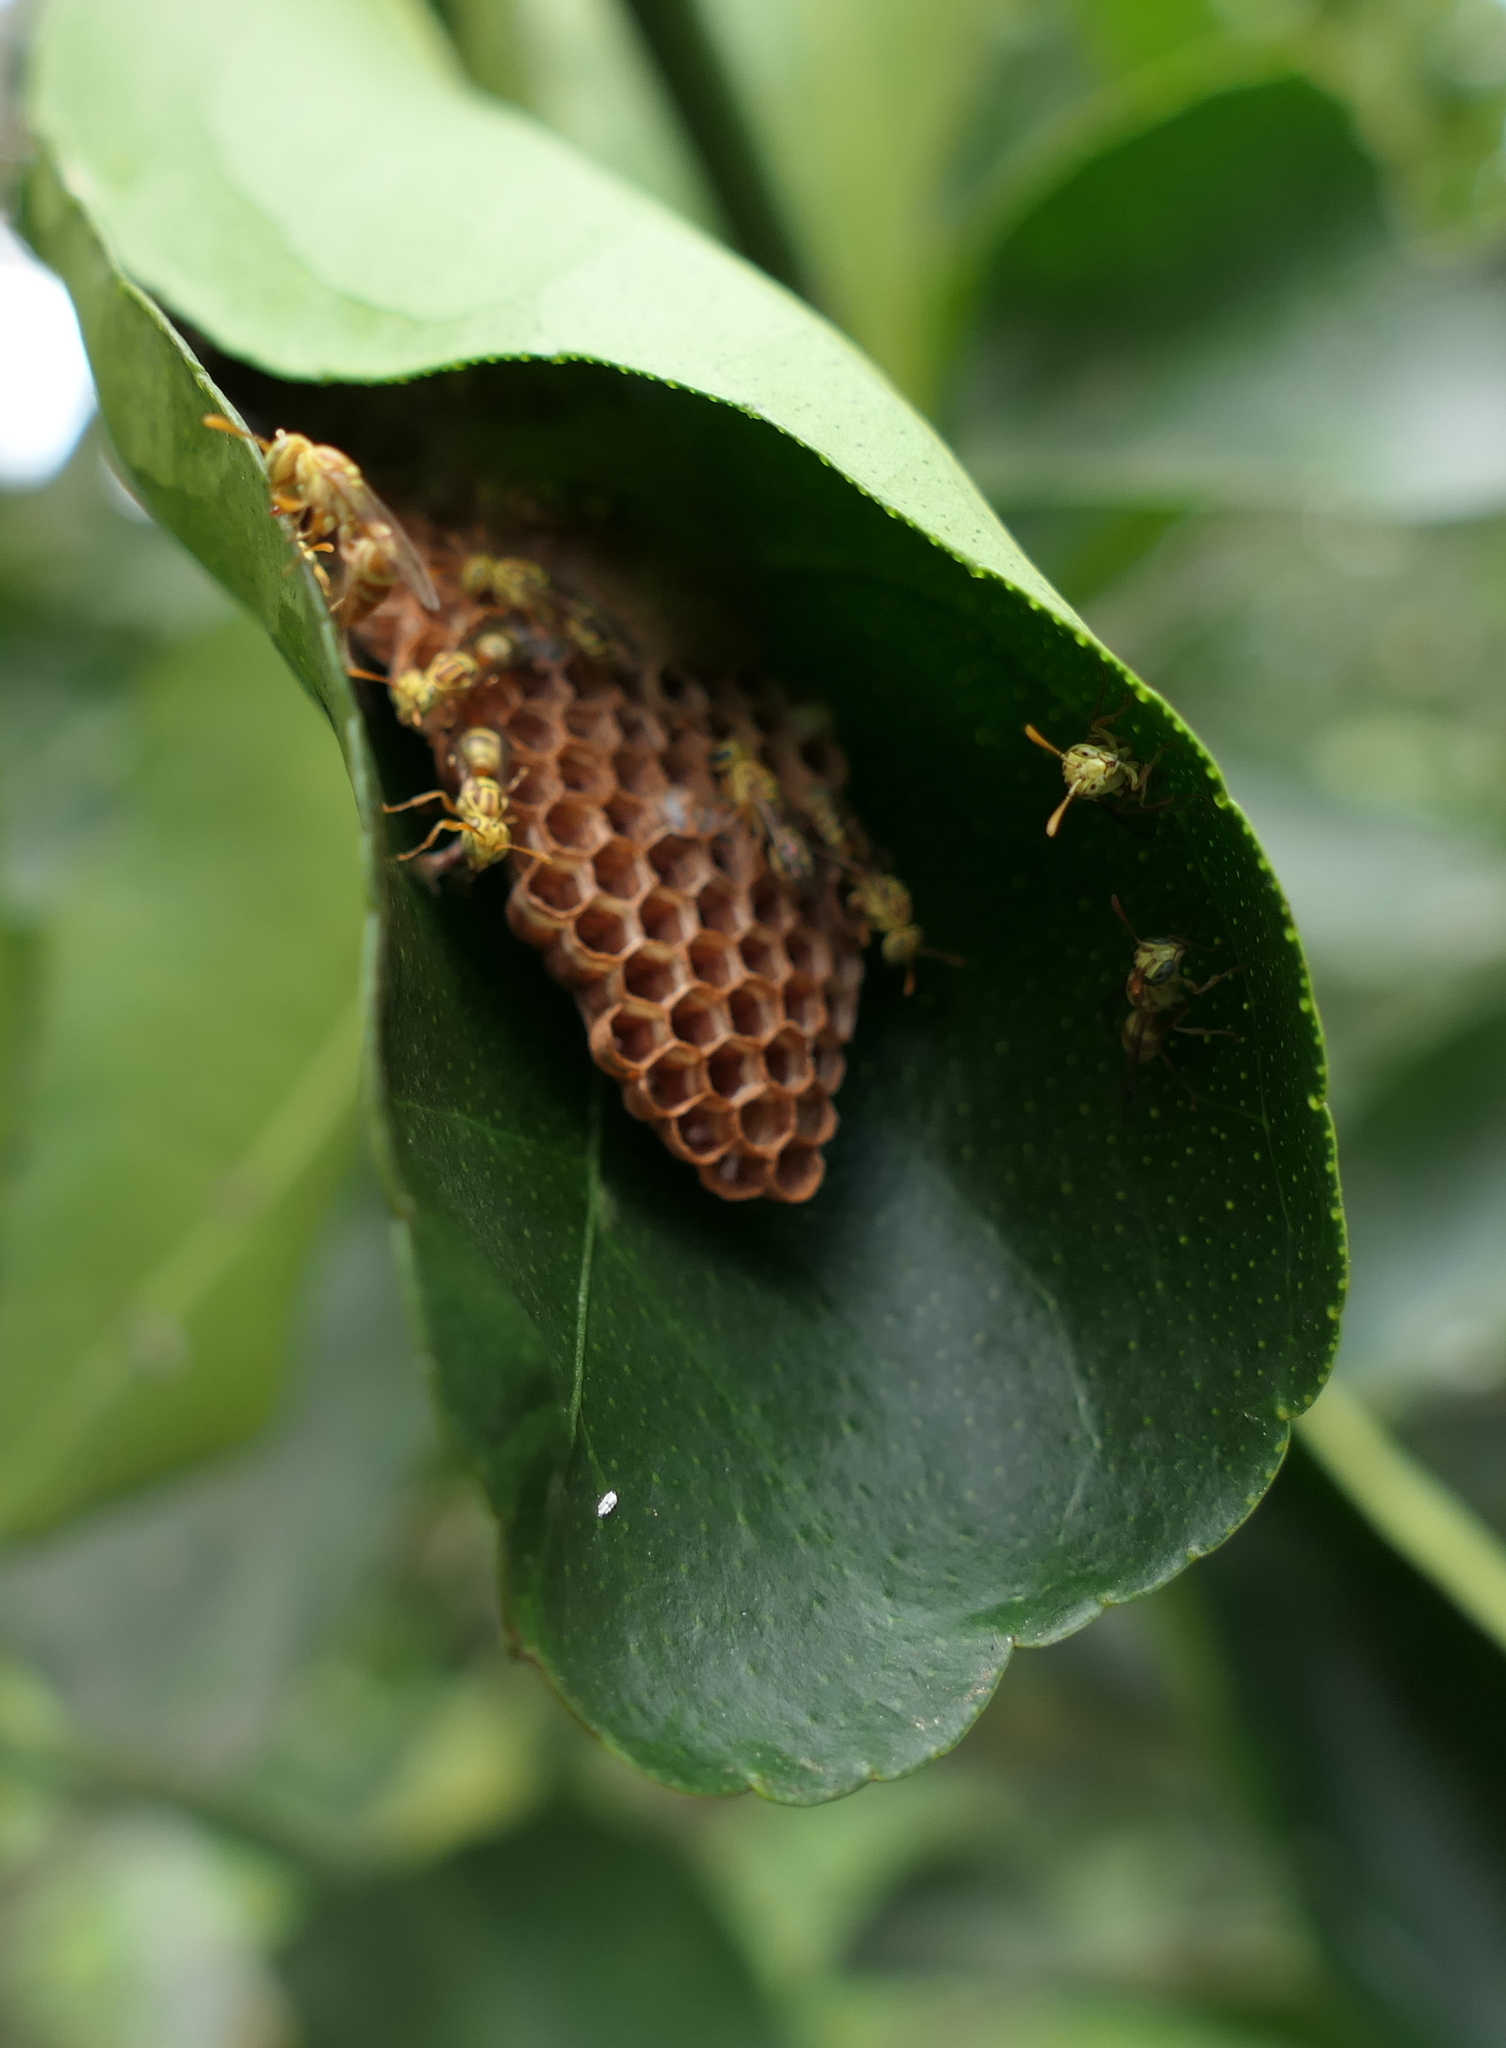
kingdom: Animalia
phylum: Arthropoda
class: Insecta
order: Hymenoptera
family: Vespidae
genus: Protopolybia
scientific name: Protopolybia potiguara
